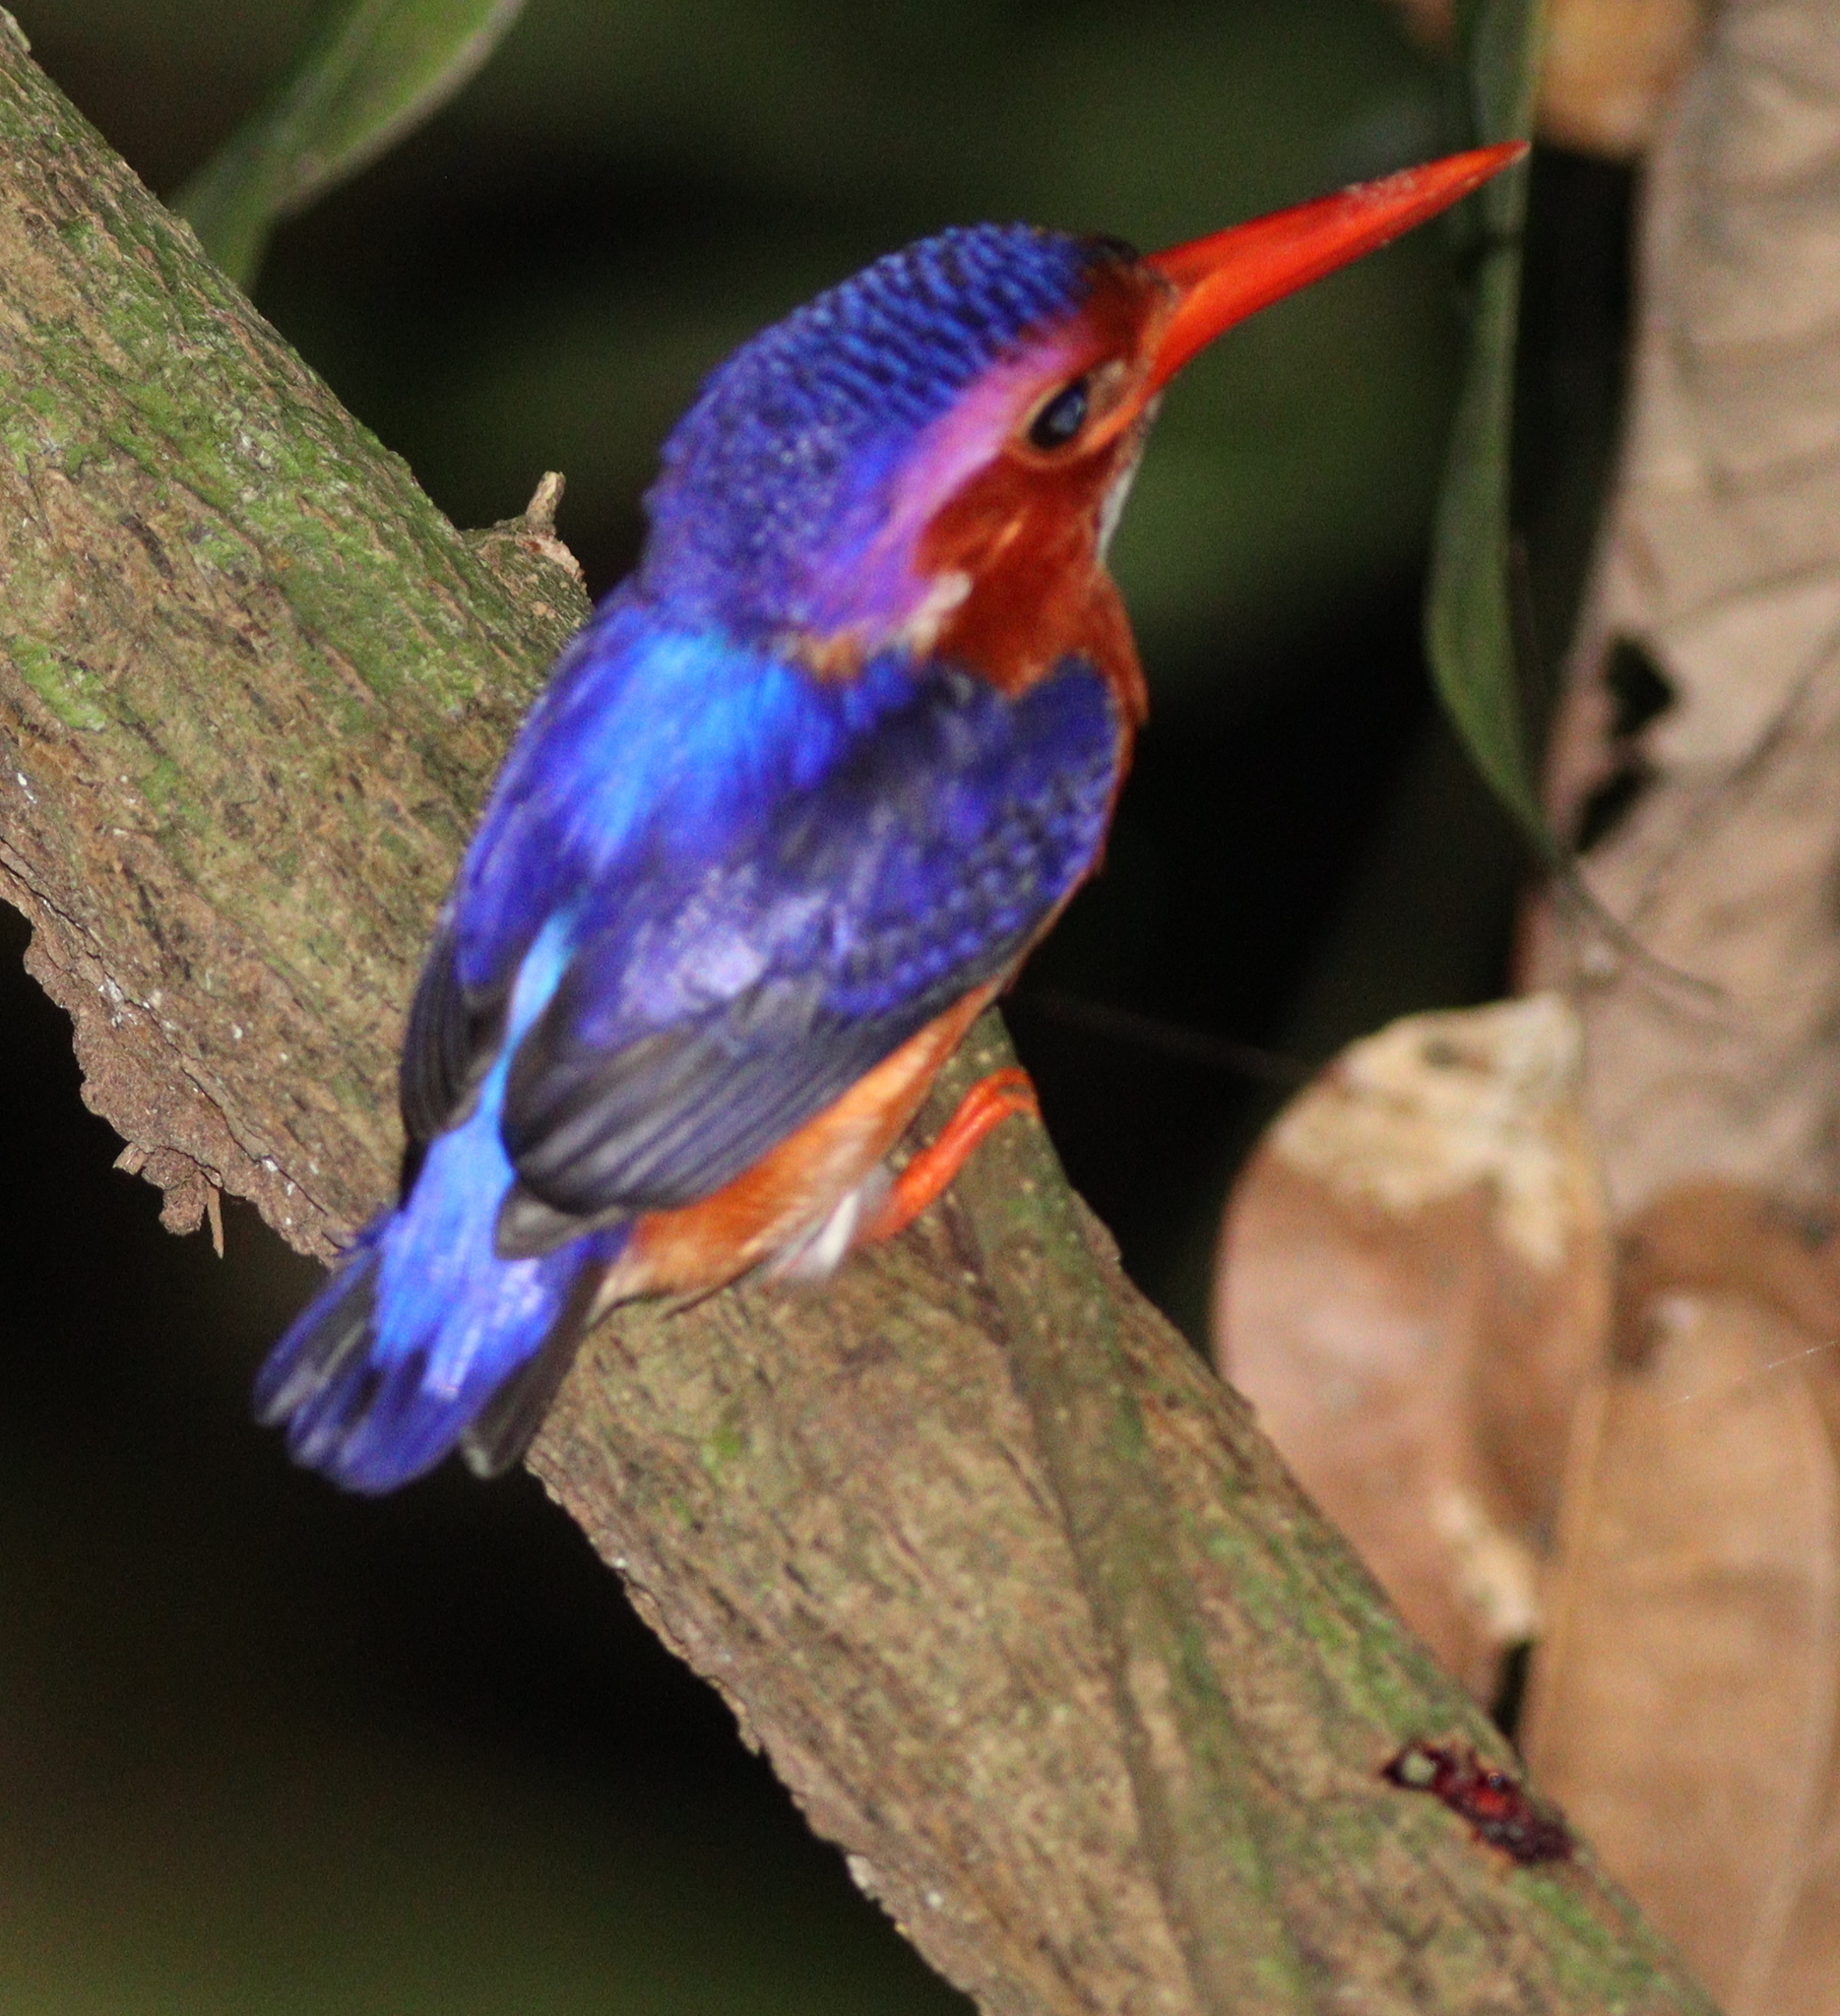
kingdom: Animalia
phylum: Chordata
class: Aves
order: Coraciiformes
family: Alcedinidae
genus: Corythornis
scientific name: Corythornis leucogaster
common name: White-bellied kingfisher
